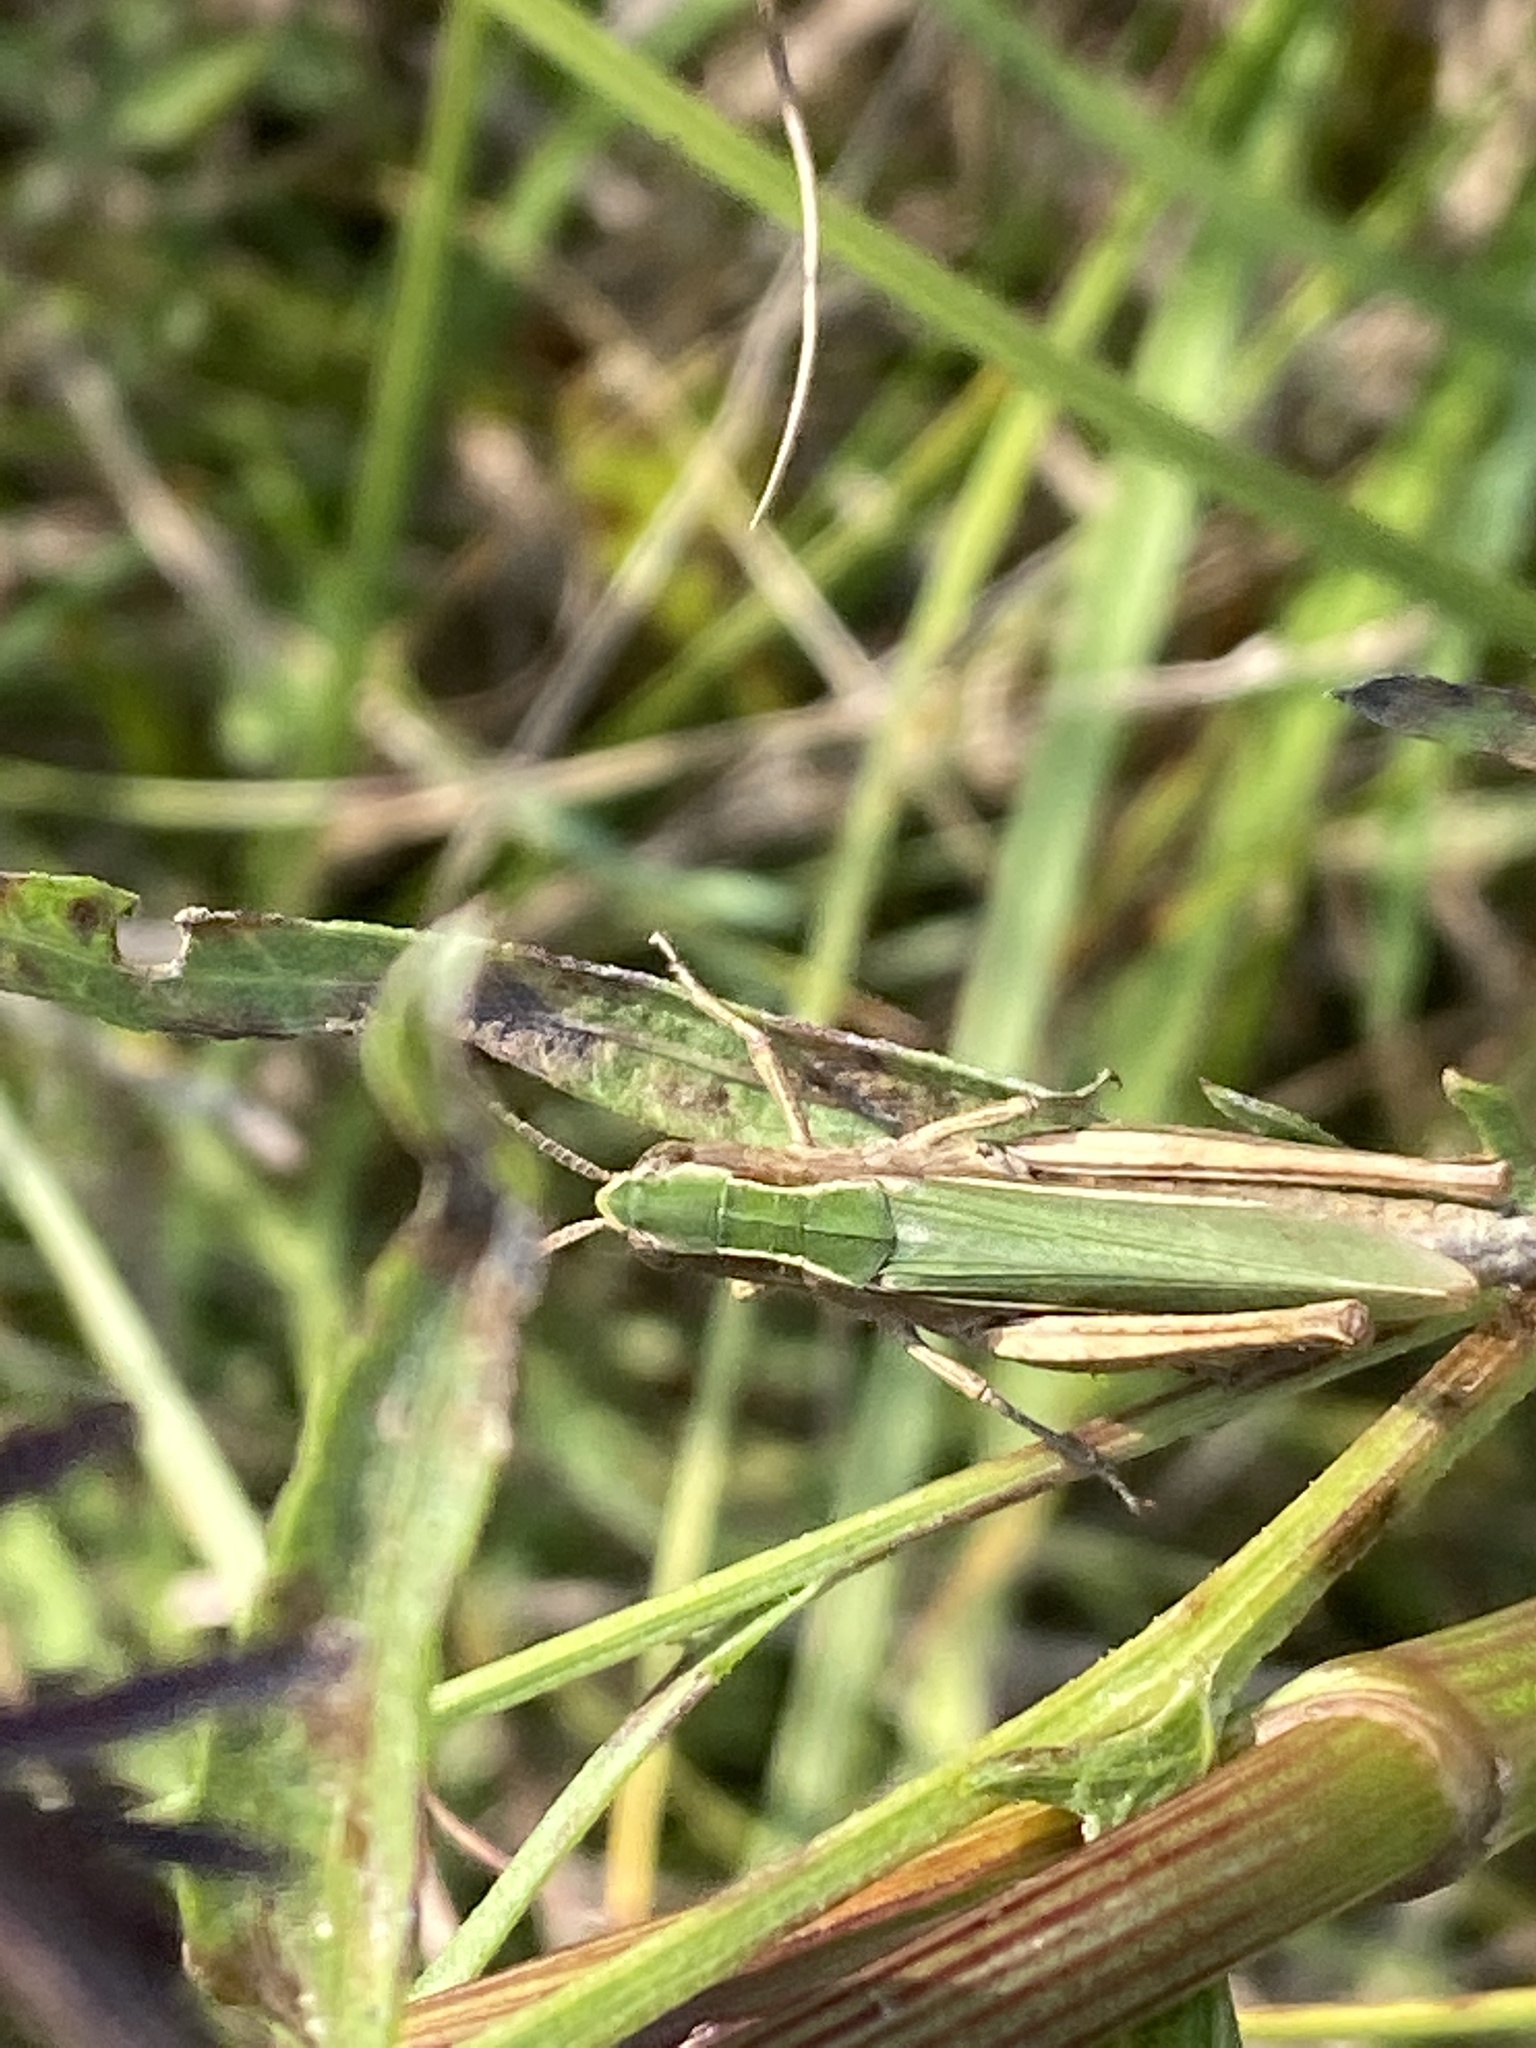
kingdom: Animalia
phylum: Arthropoda
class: Insecta
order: Orthoptera
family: Acrididae
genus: Chorthippus
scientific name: Chorthippus dorsatus
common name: Steppe grasshopper
